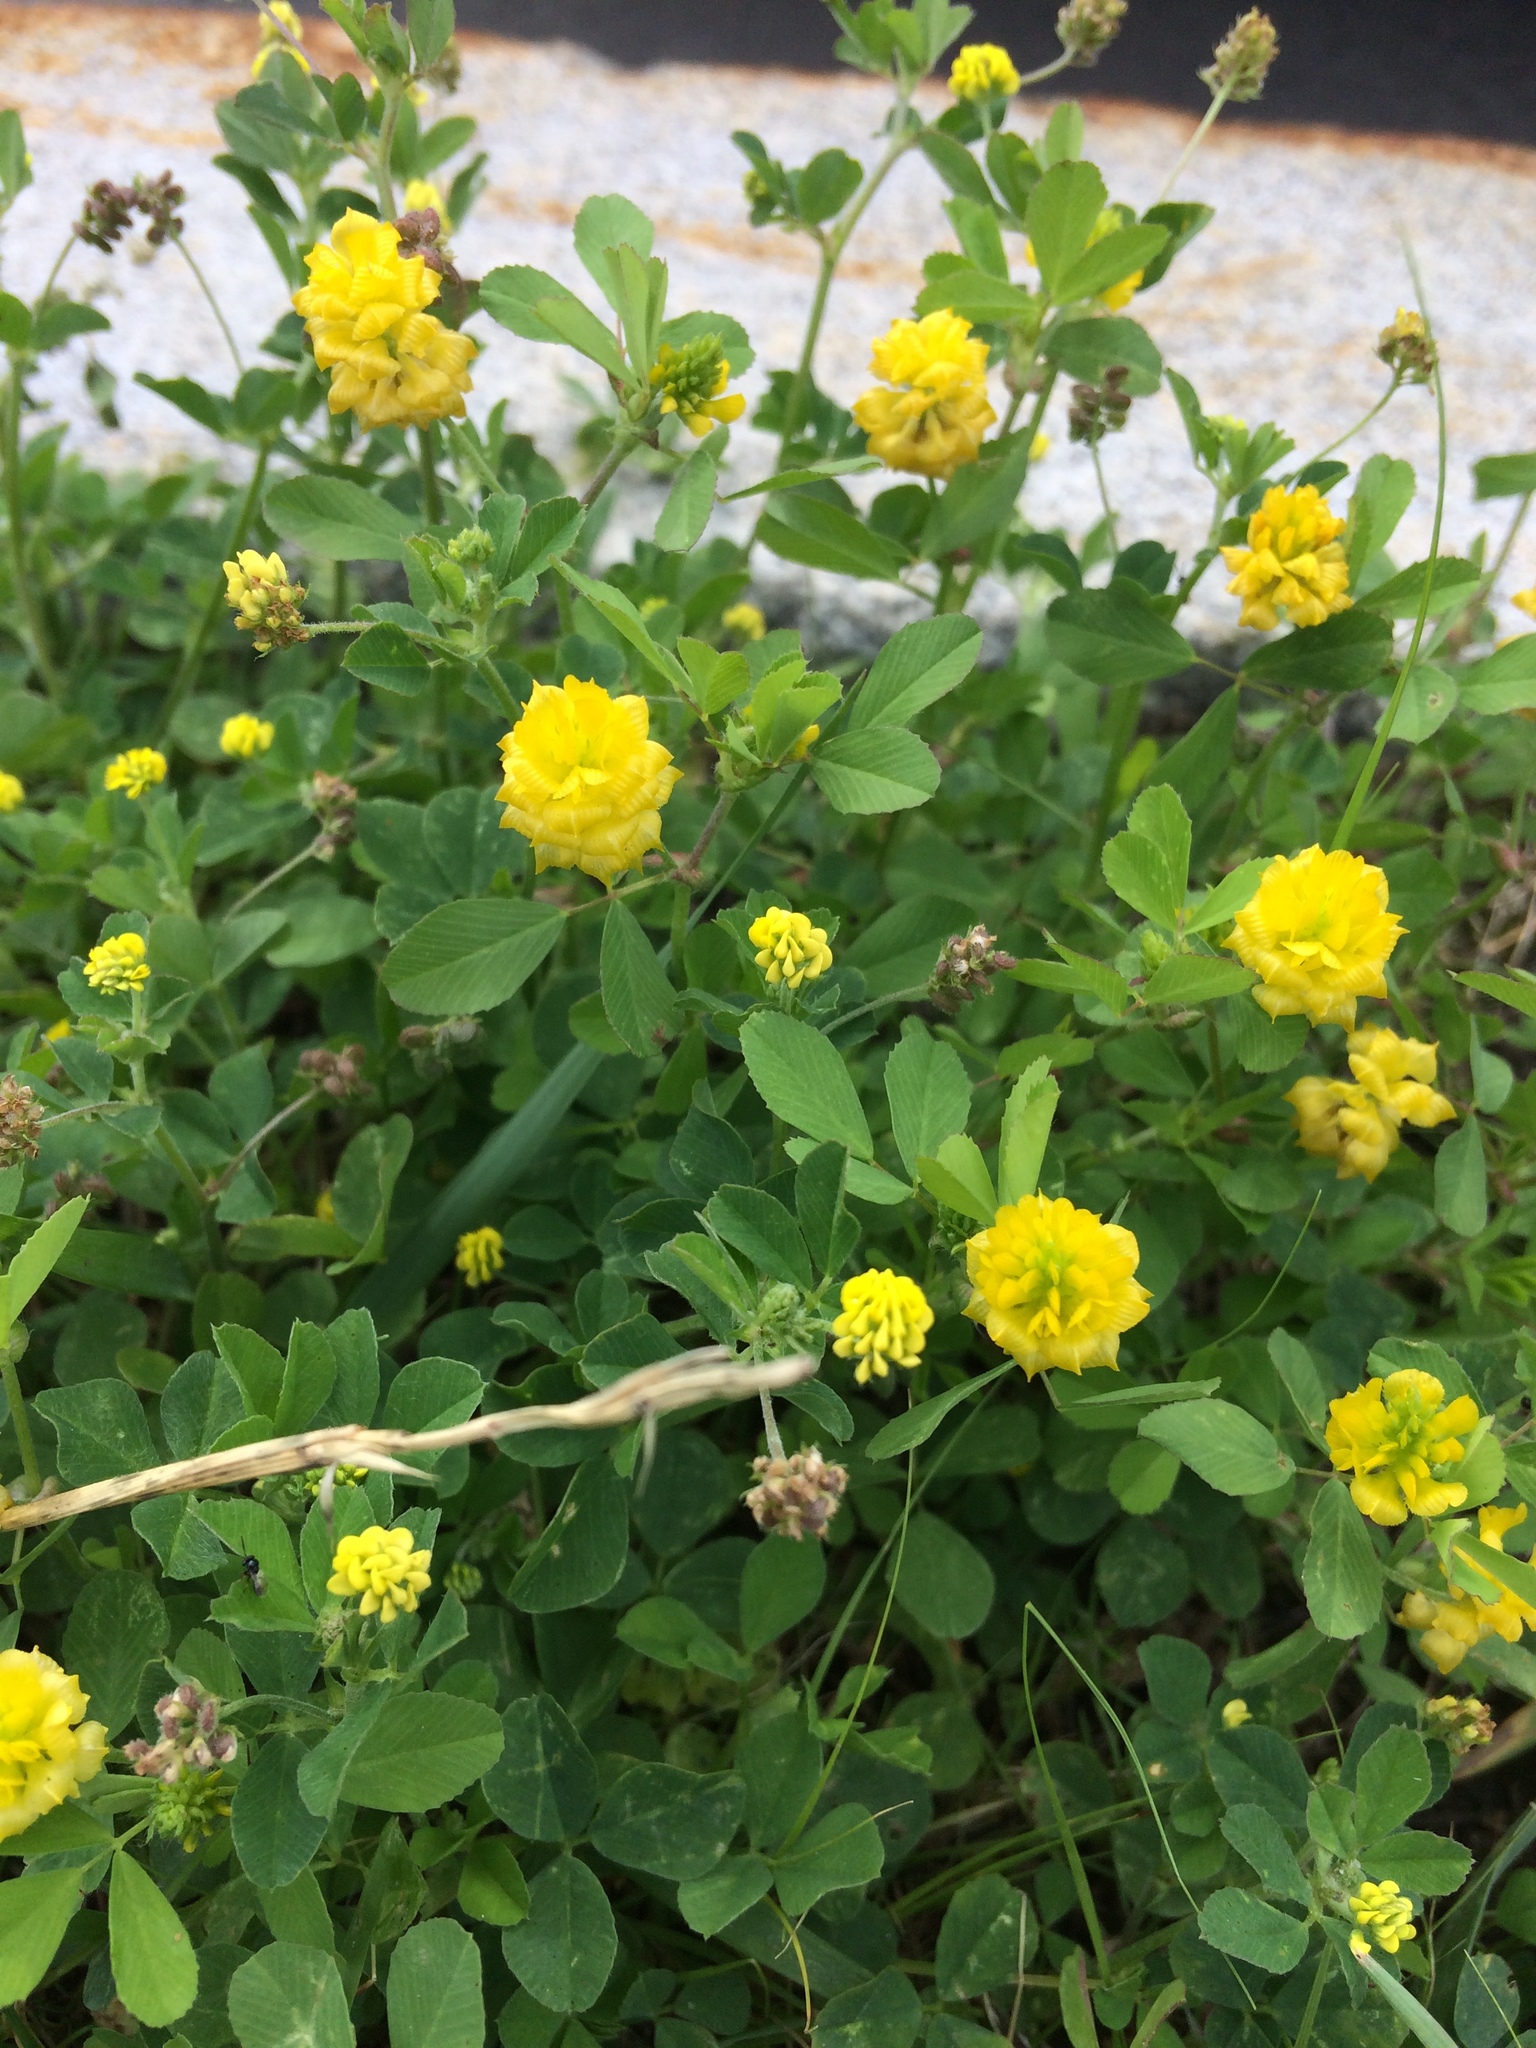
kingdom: Plantae
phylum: Tracheophyta
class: Magnoliopsida
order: Fabales
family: Fabaceae
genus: Trifolium
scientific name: Trifolium campestre
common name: Field clover
